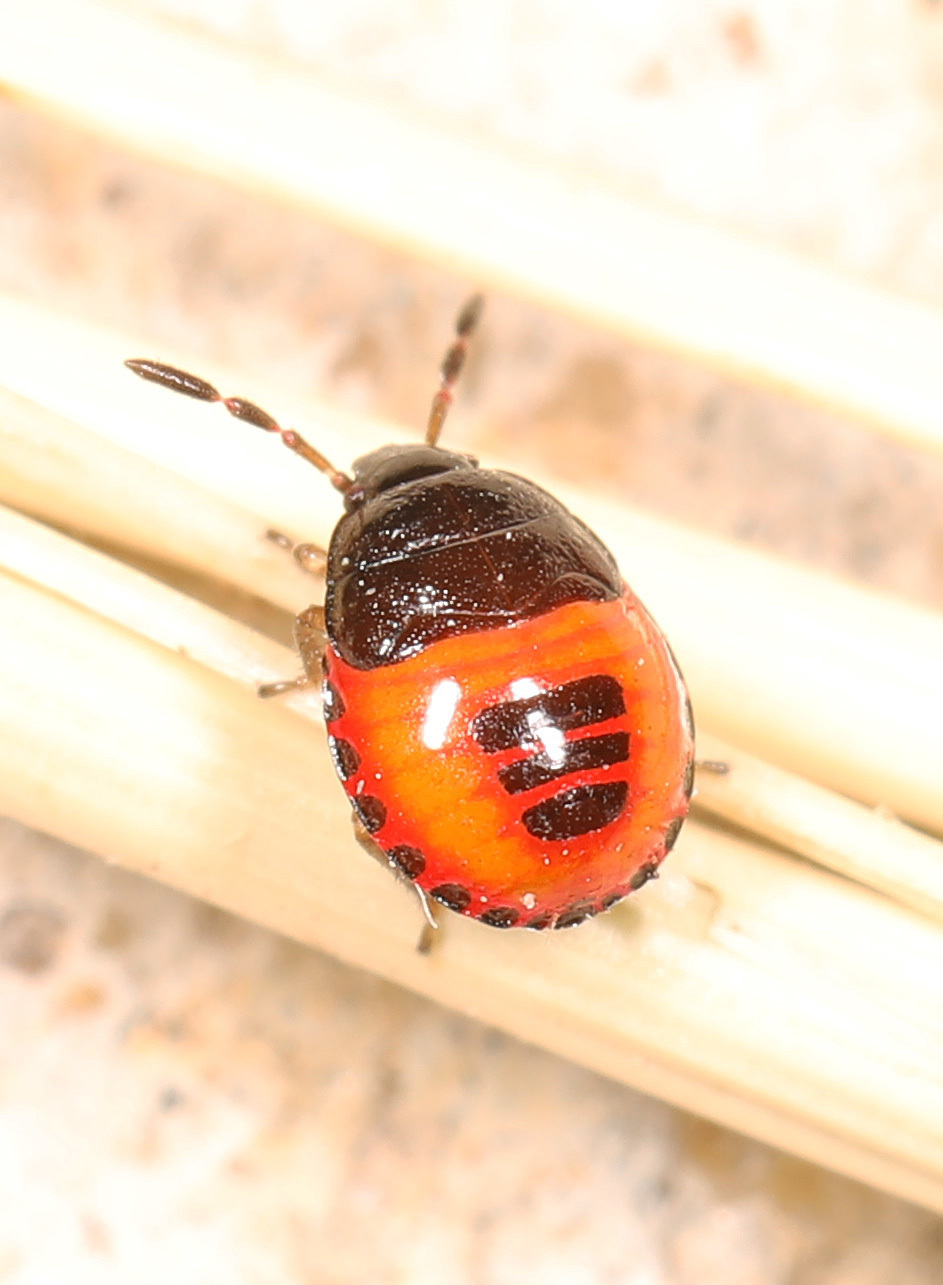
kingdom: Animalia
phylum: Arthropoda
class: Insecta
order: Hemiptera
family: Cydnidae
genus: Sehirus
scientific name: Sehirus cinctus
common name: White-margined burrower bug
